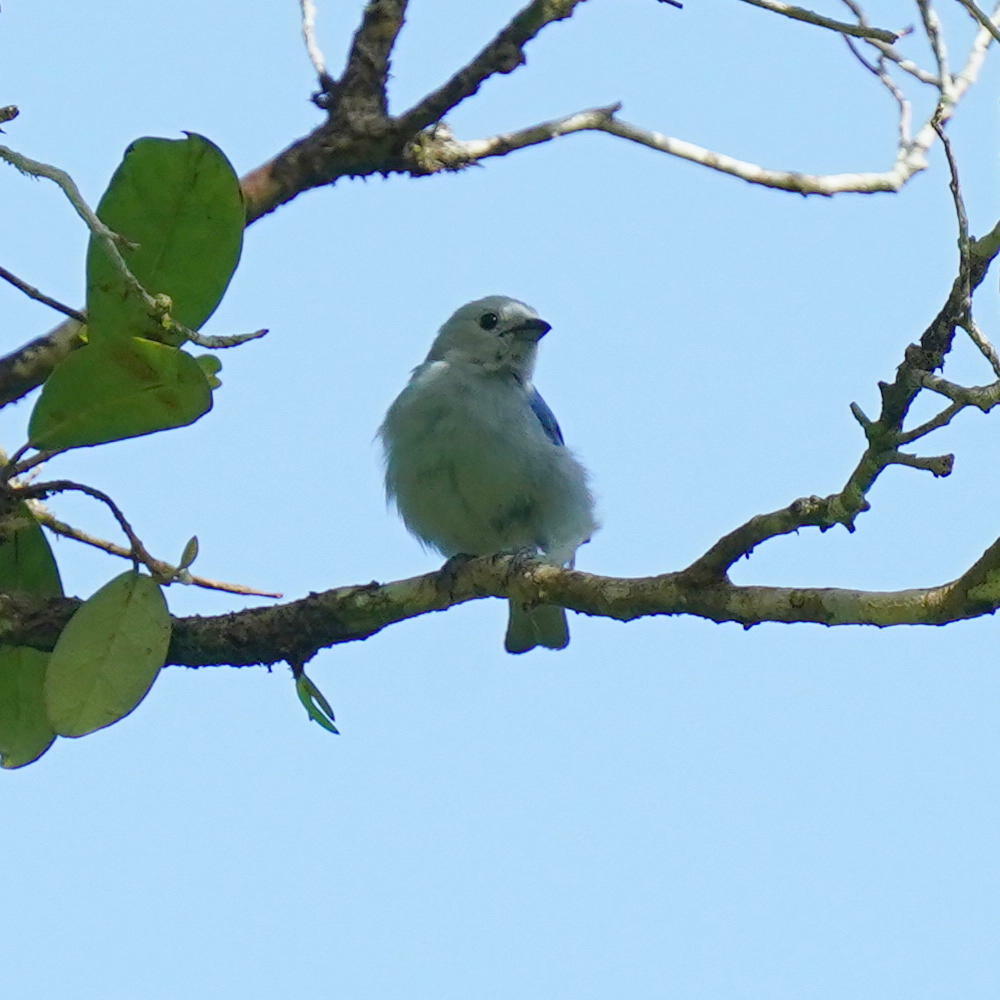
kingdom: Animalia
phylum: Chordata
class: Aves
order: Passeriformes
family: Thraupidae
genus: Thraupis
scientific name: Thraupis episcopus
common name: Blue-grey tanager
